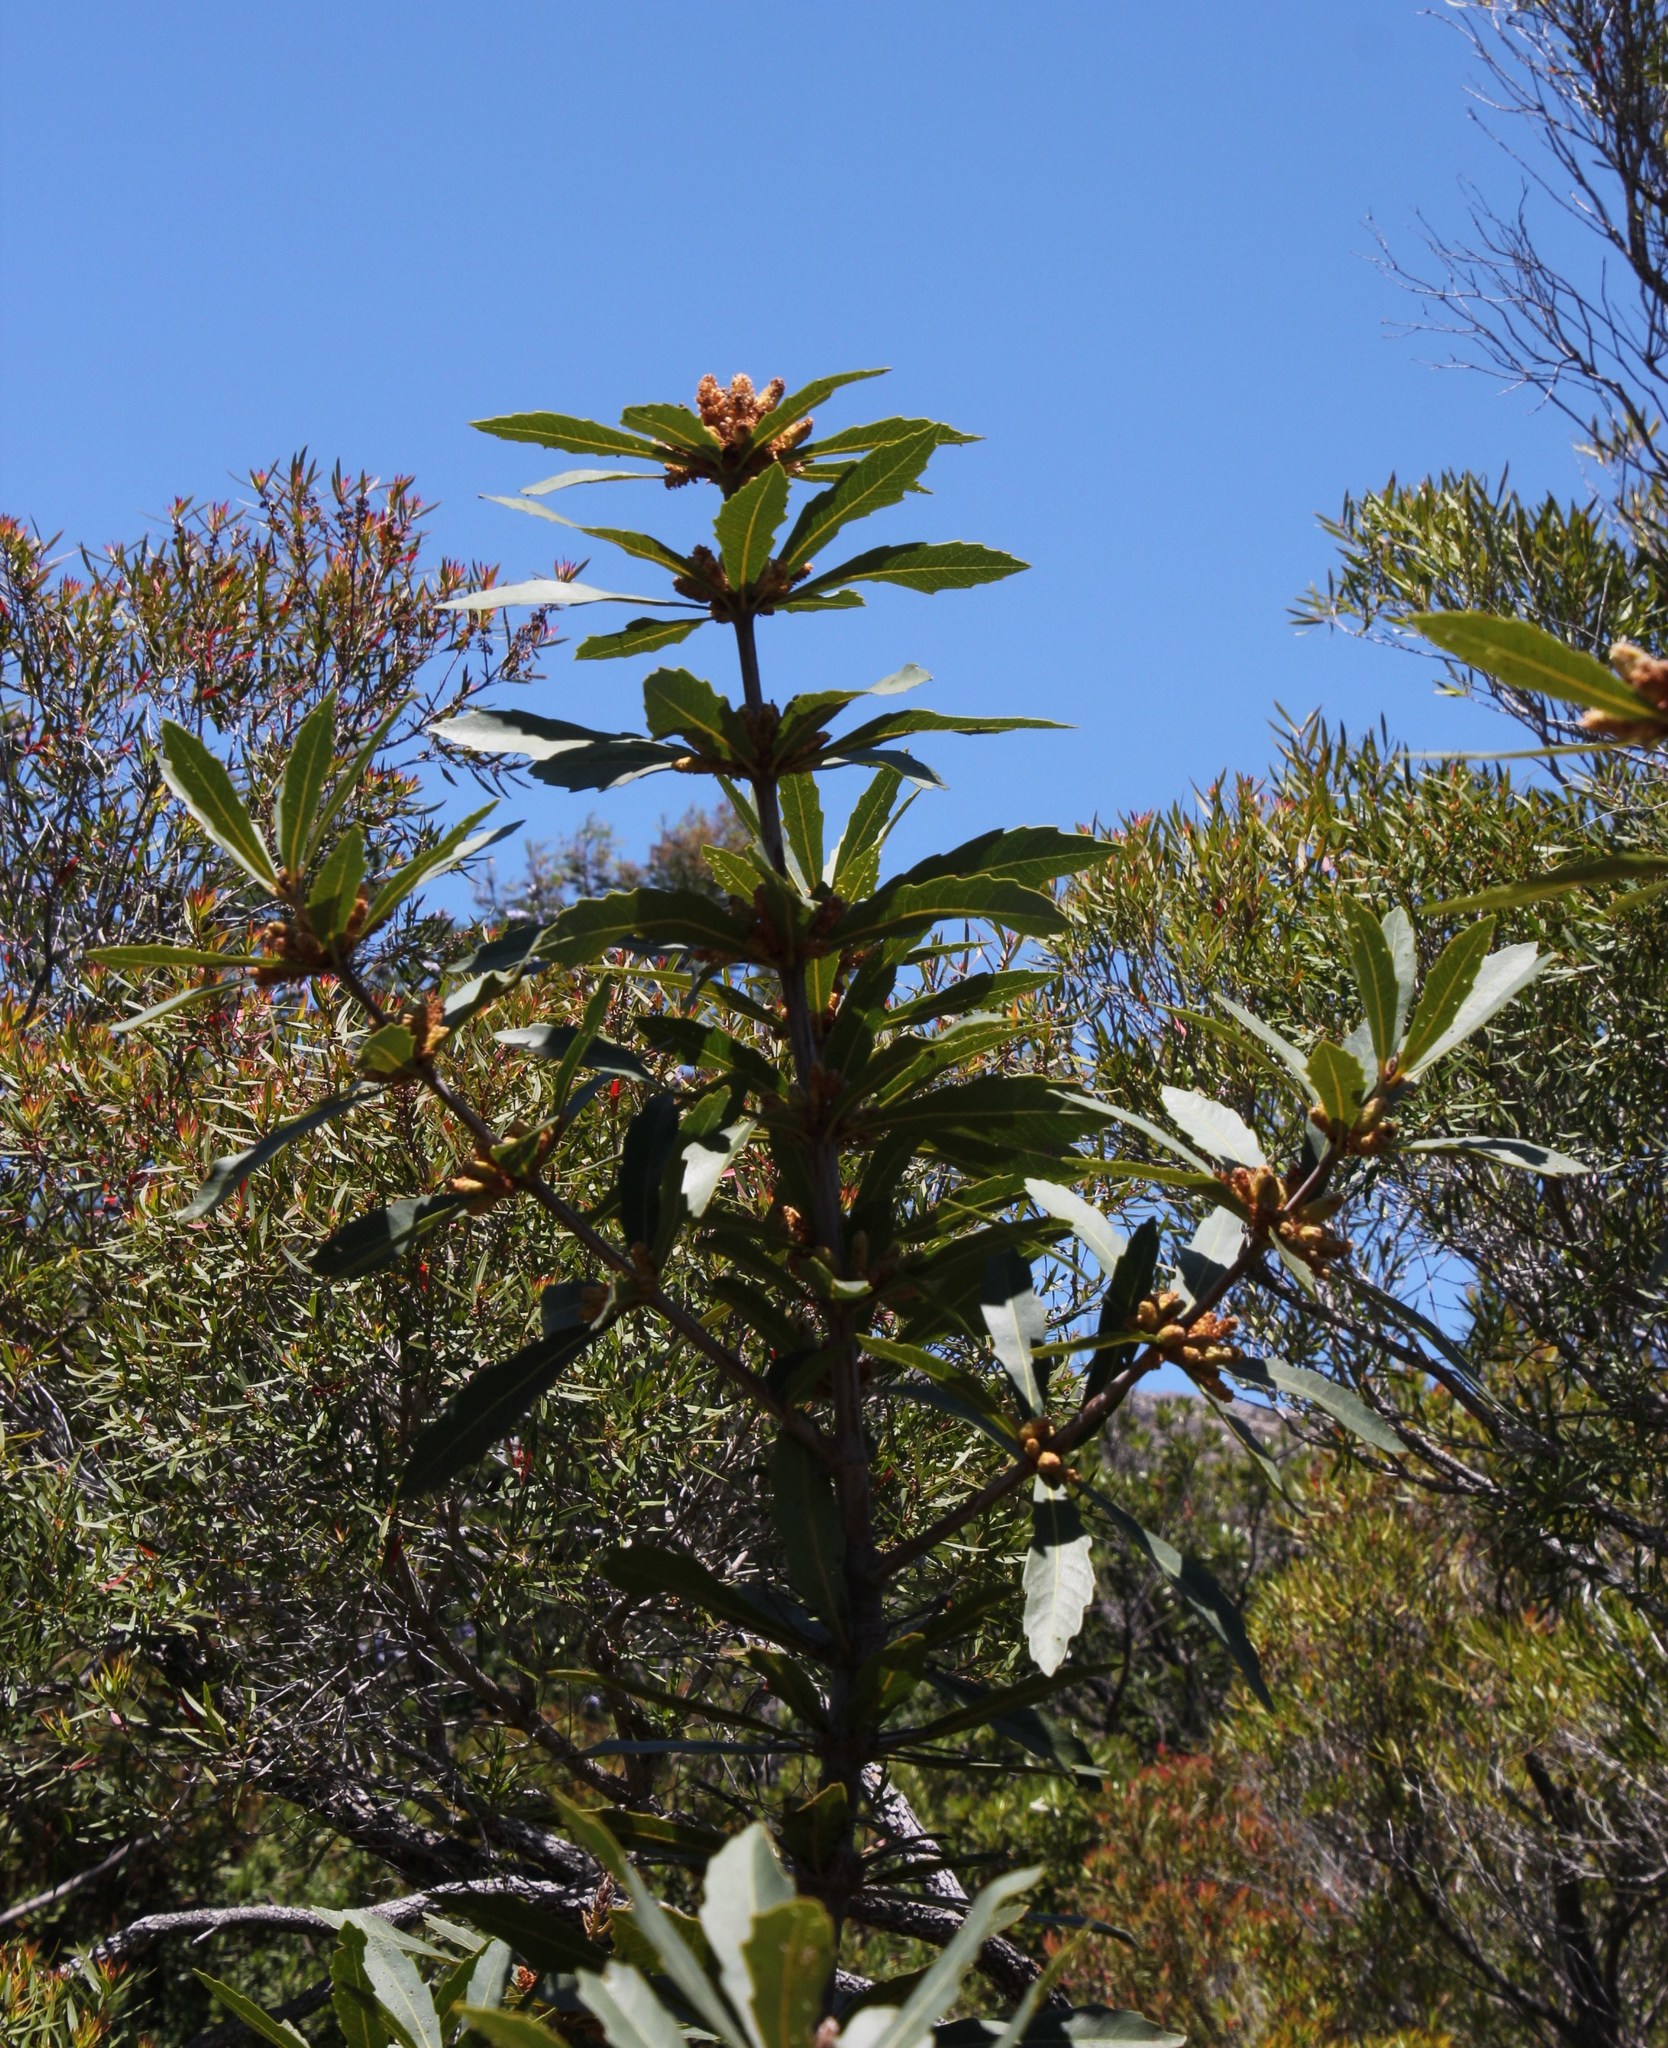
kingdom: Plantae
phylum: Tracheophyta
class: Magnoliopsida
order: Proteales
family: Proteaceae
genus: Brabejum
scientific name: Brabejum stellatifolium
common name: Wild almond
